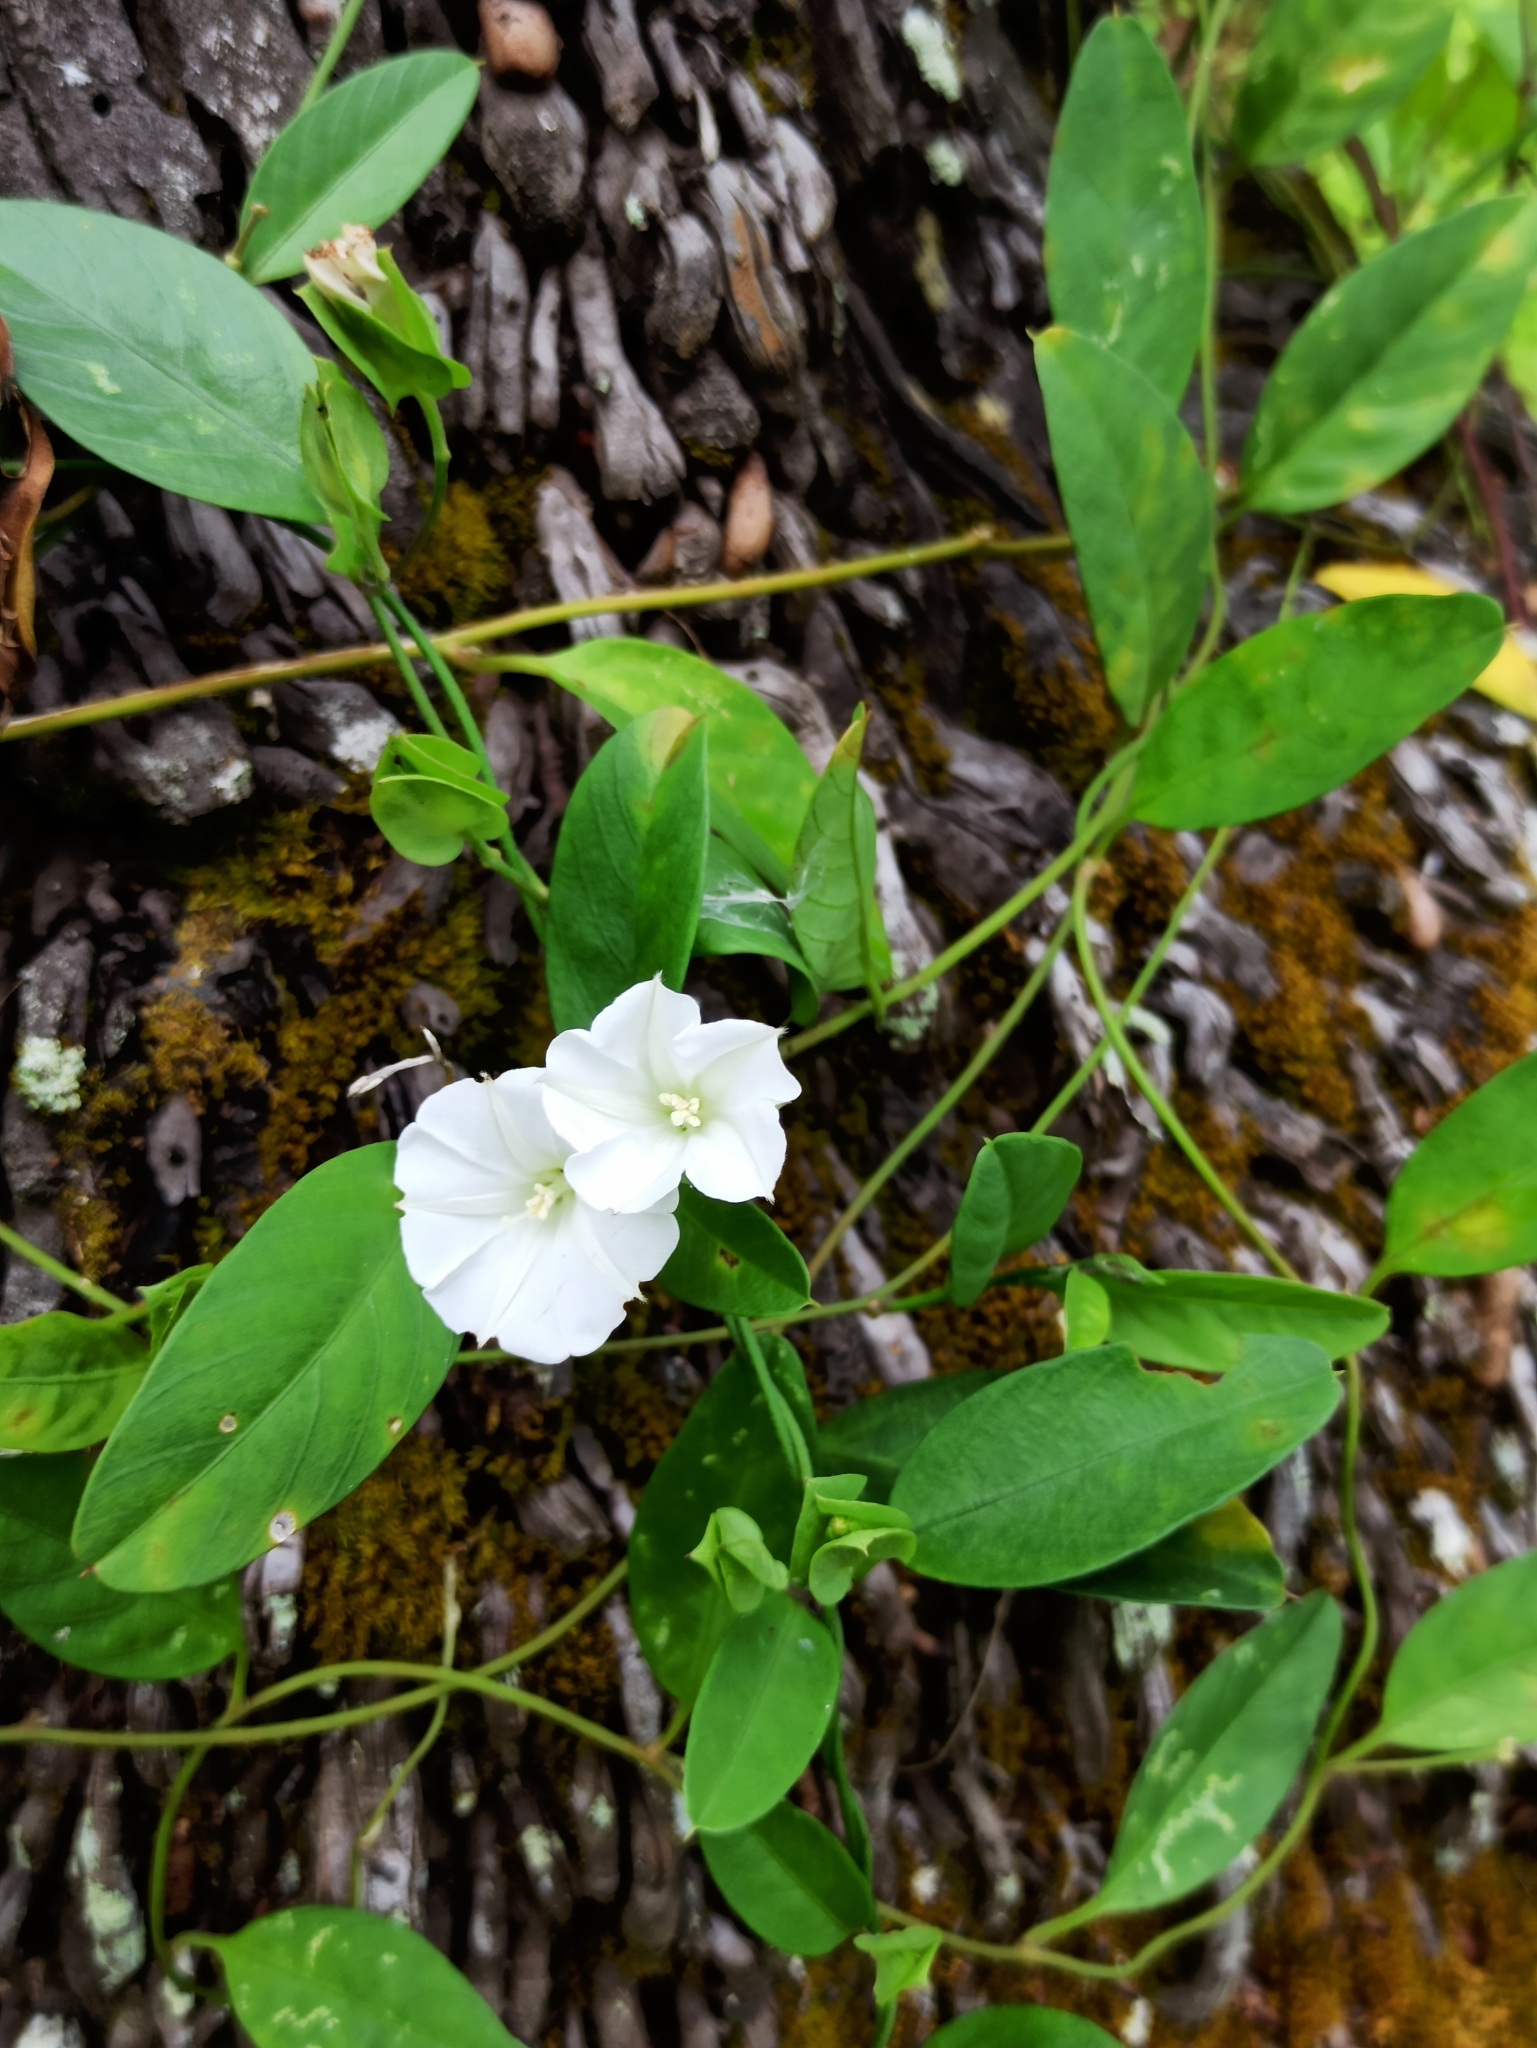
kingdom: Plantae
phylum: Tracheophyta
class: Magnoliopsida
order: Solanales
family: Convolvulaceae
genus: Aniseia
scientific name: Aniseia martinicensis
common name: Kulayadambu
